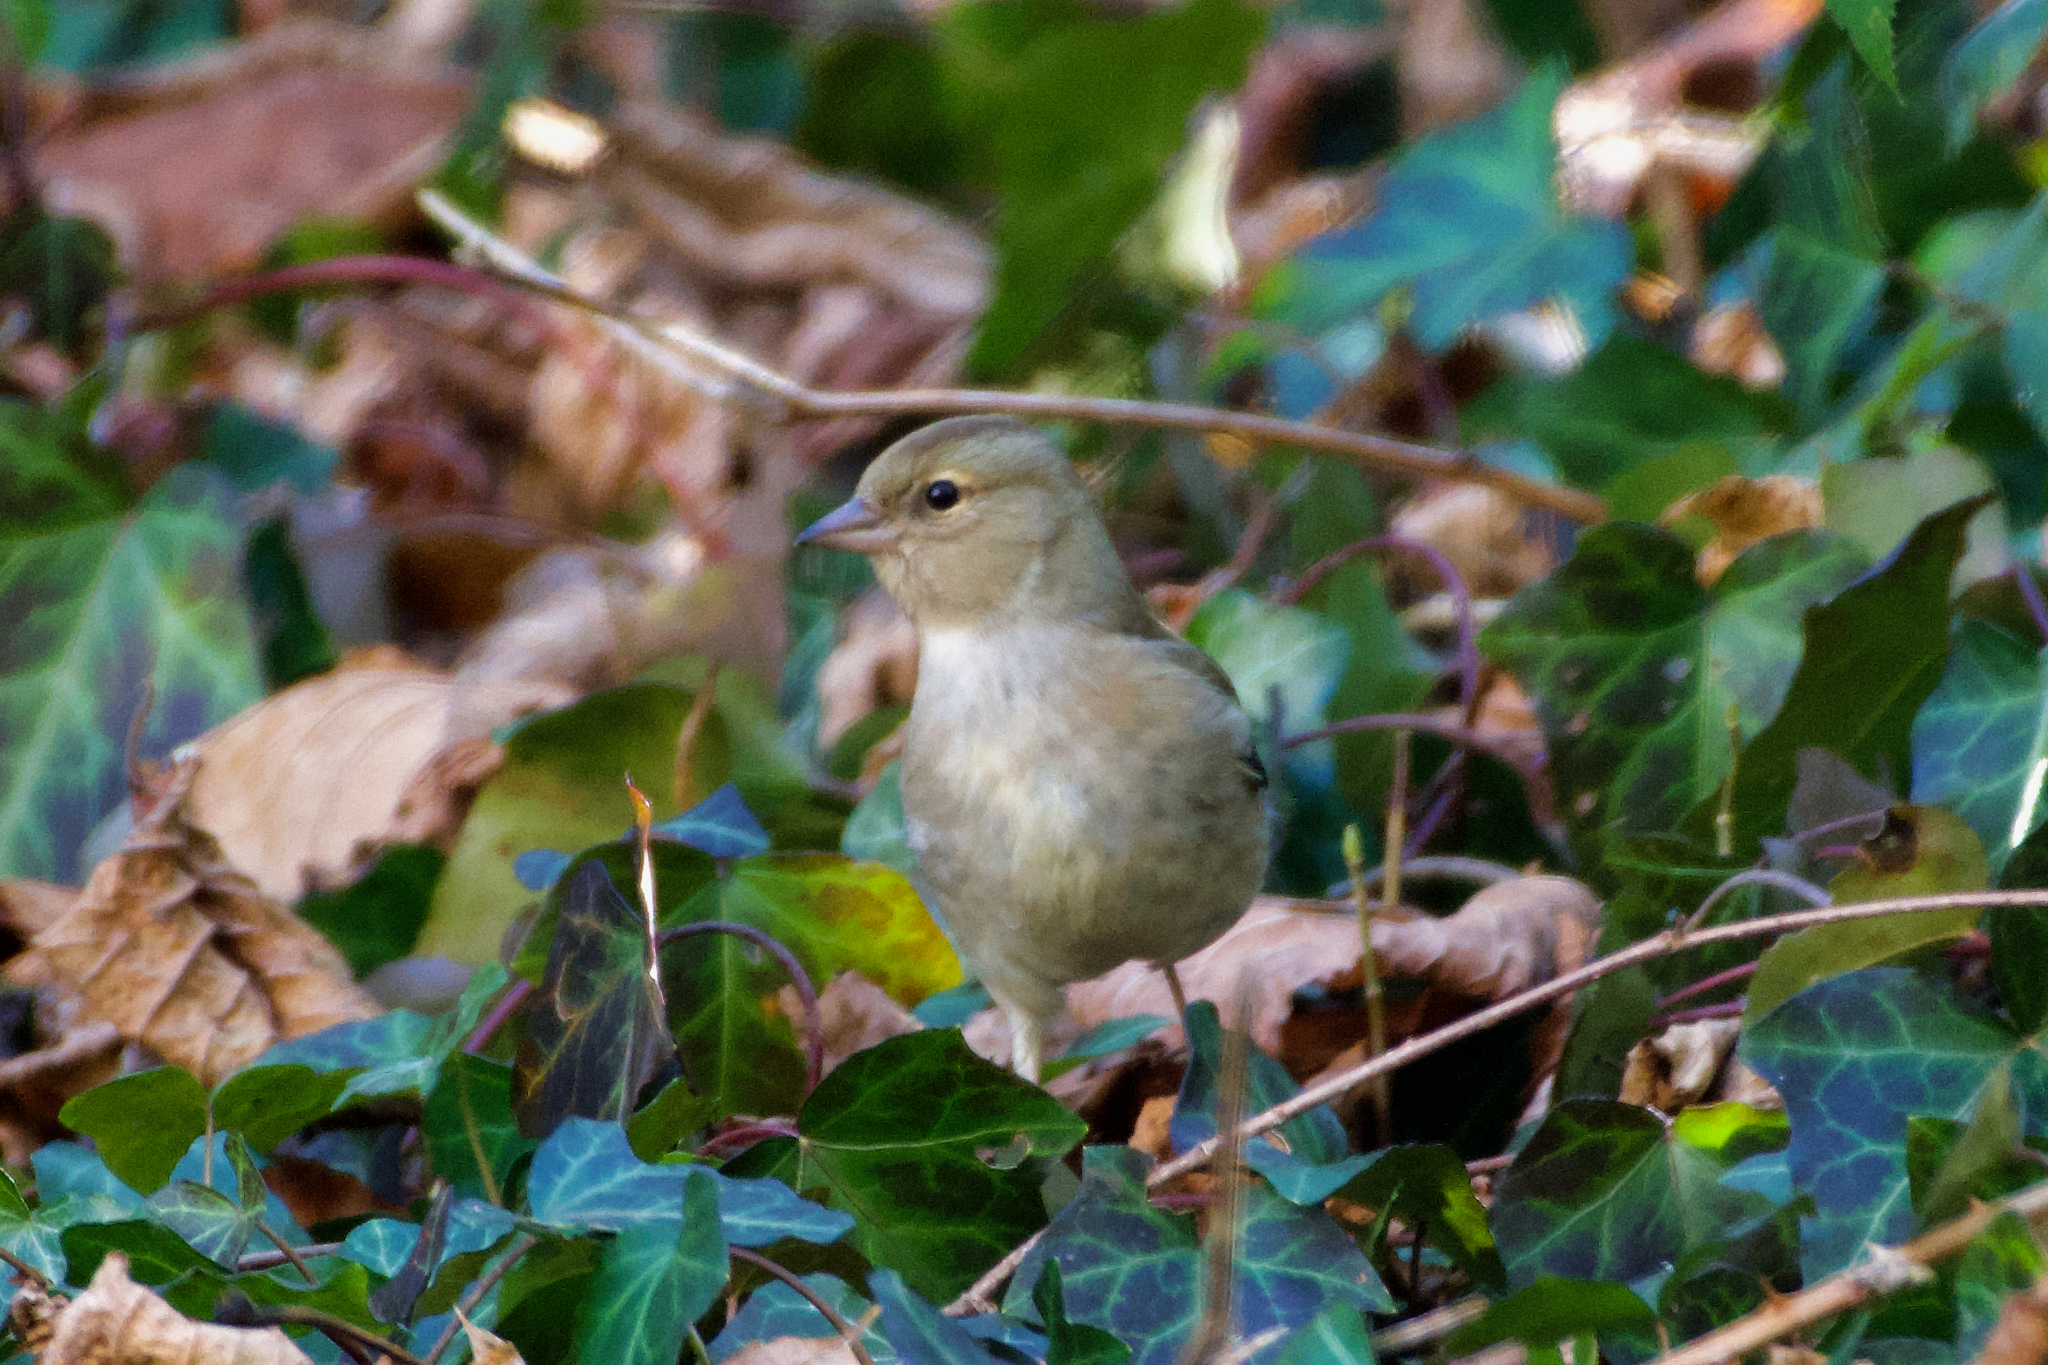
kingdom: Animalia
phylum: Chordata
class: Aves
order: Passeriformes
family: Fringillidae
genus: Fringilla
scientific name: Fringilla coelebs
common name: Common chaffinch
